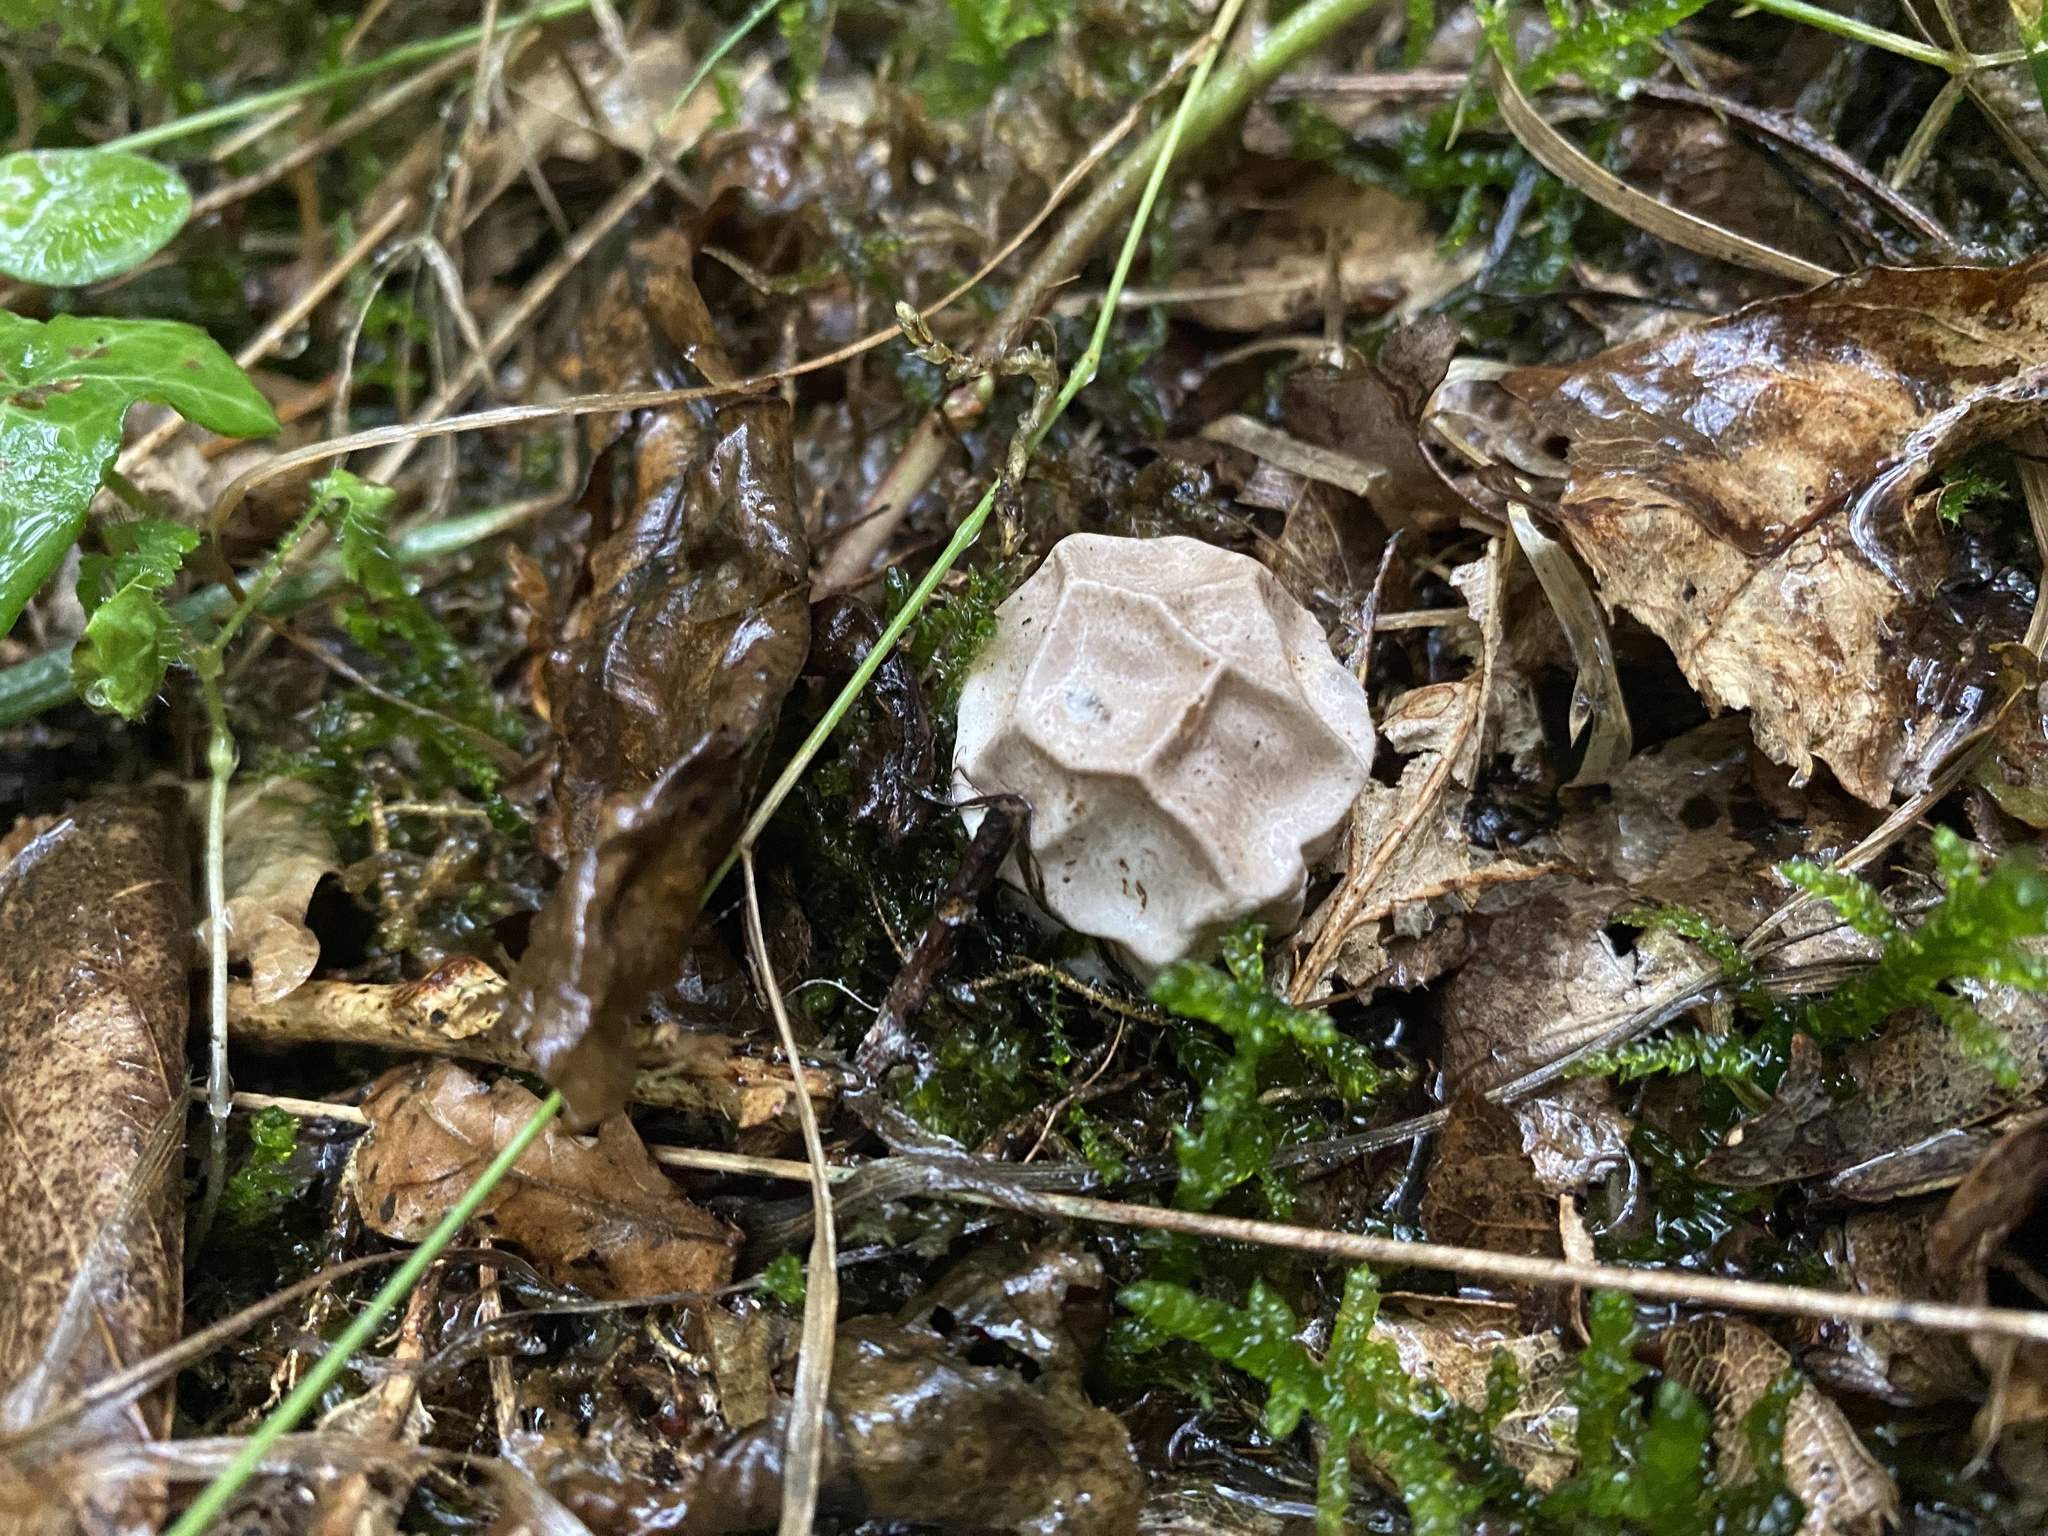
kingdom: Fungi
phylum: Basidiomycota
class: Agaricomycetes
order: Phallales
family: Phallaceae
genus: Clathrus
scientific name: Clathrus ruber
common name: Red cage
